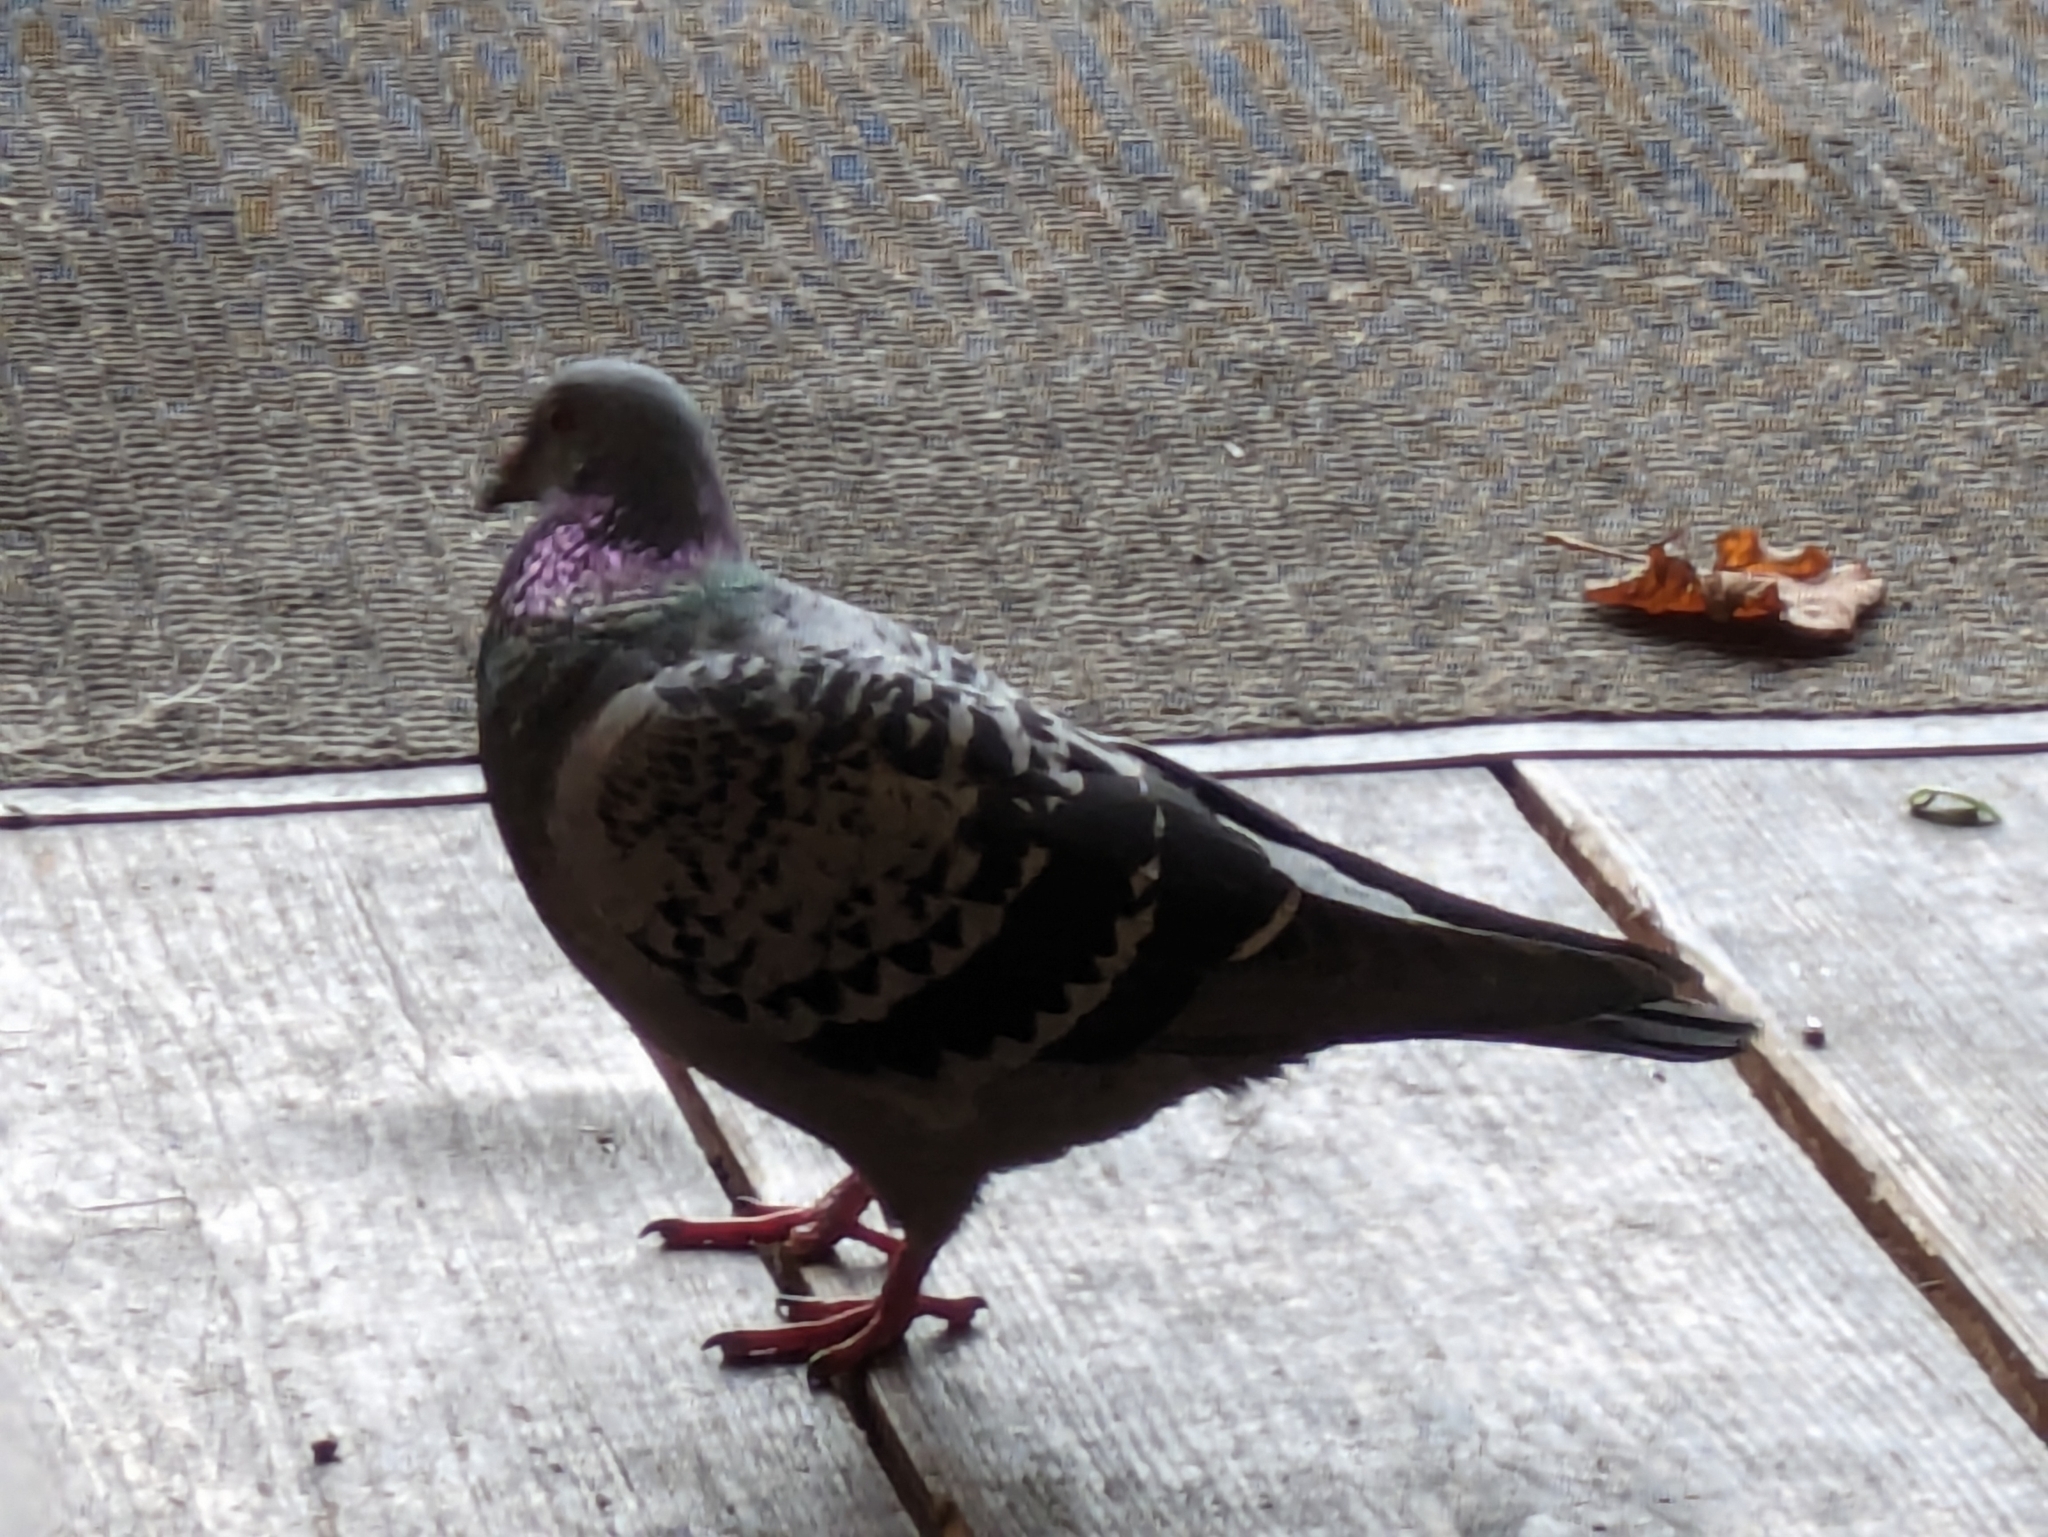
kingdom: Animalia
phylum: Chordata
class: Aves
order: Columbiformes
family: Columbidae
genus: Columba
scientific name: Columba livia
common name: Rock pigeon
